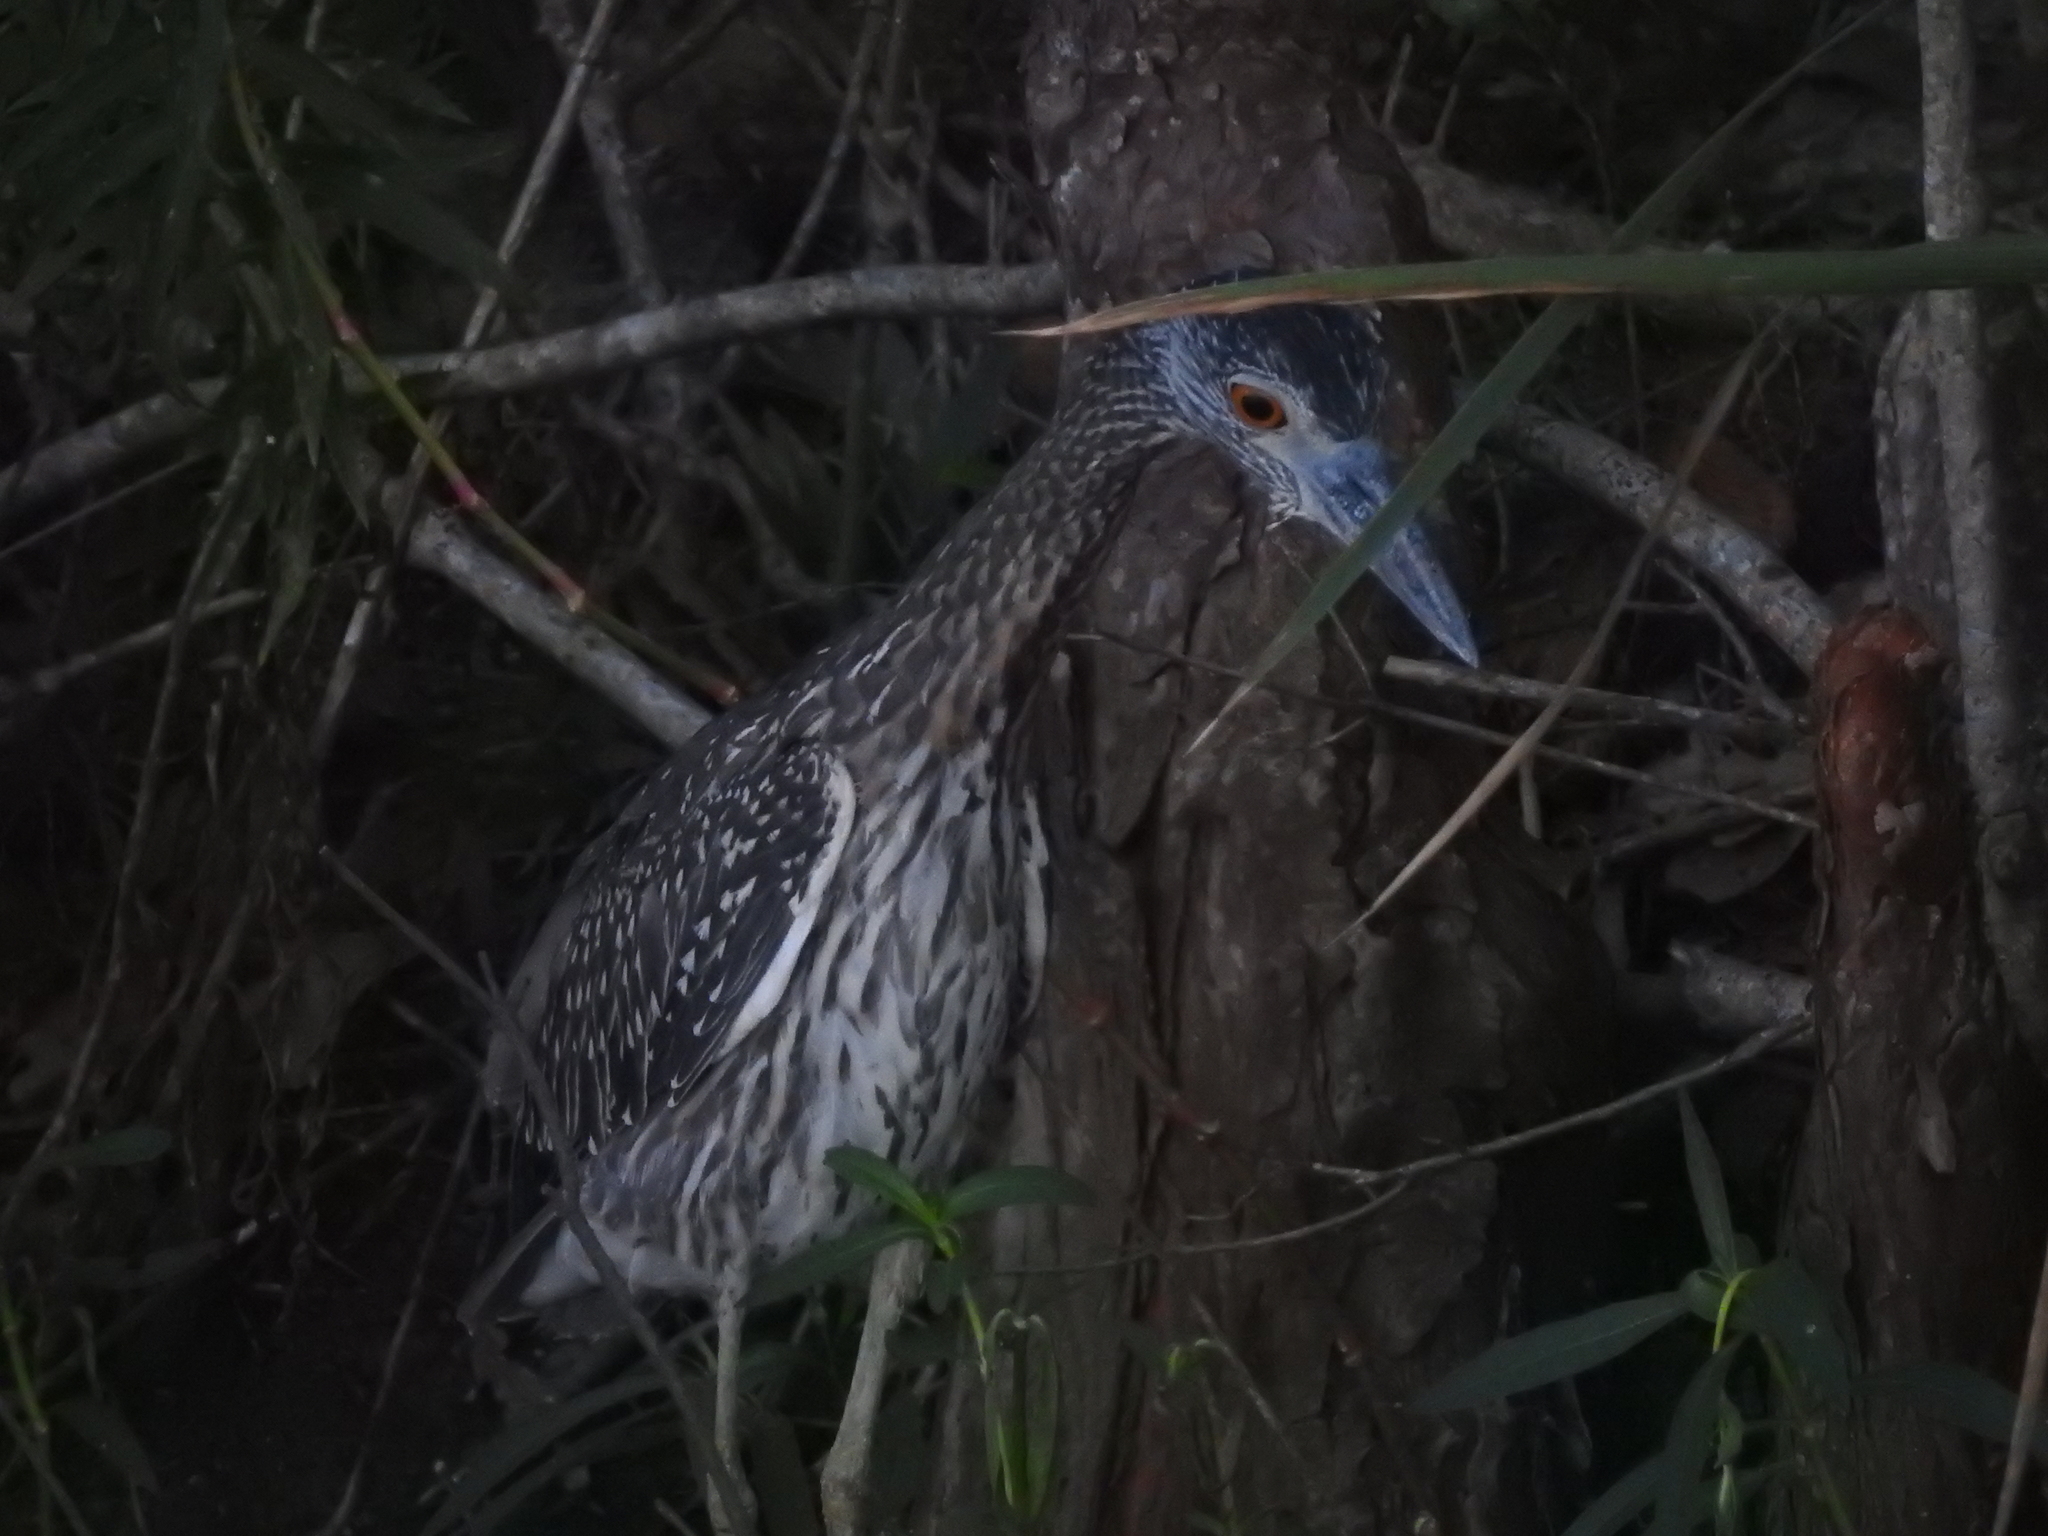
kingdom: Animalia
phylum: Chordata
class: Aves
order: Pelecaniformes
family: Ardeidae
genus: Nyctanassa
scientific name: Nyctanassa violacea
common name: Yellow-crowned night heron
